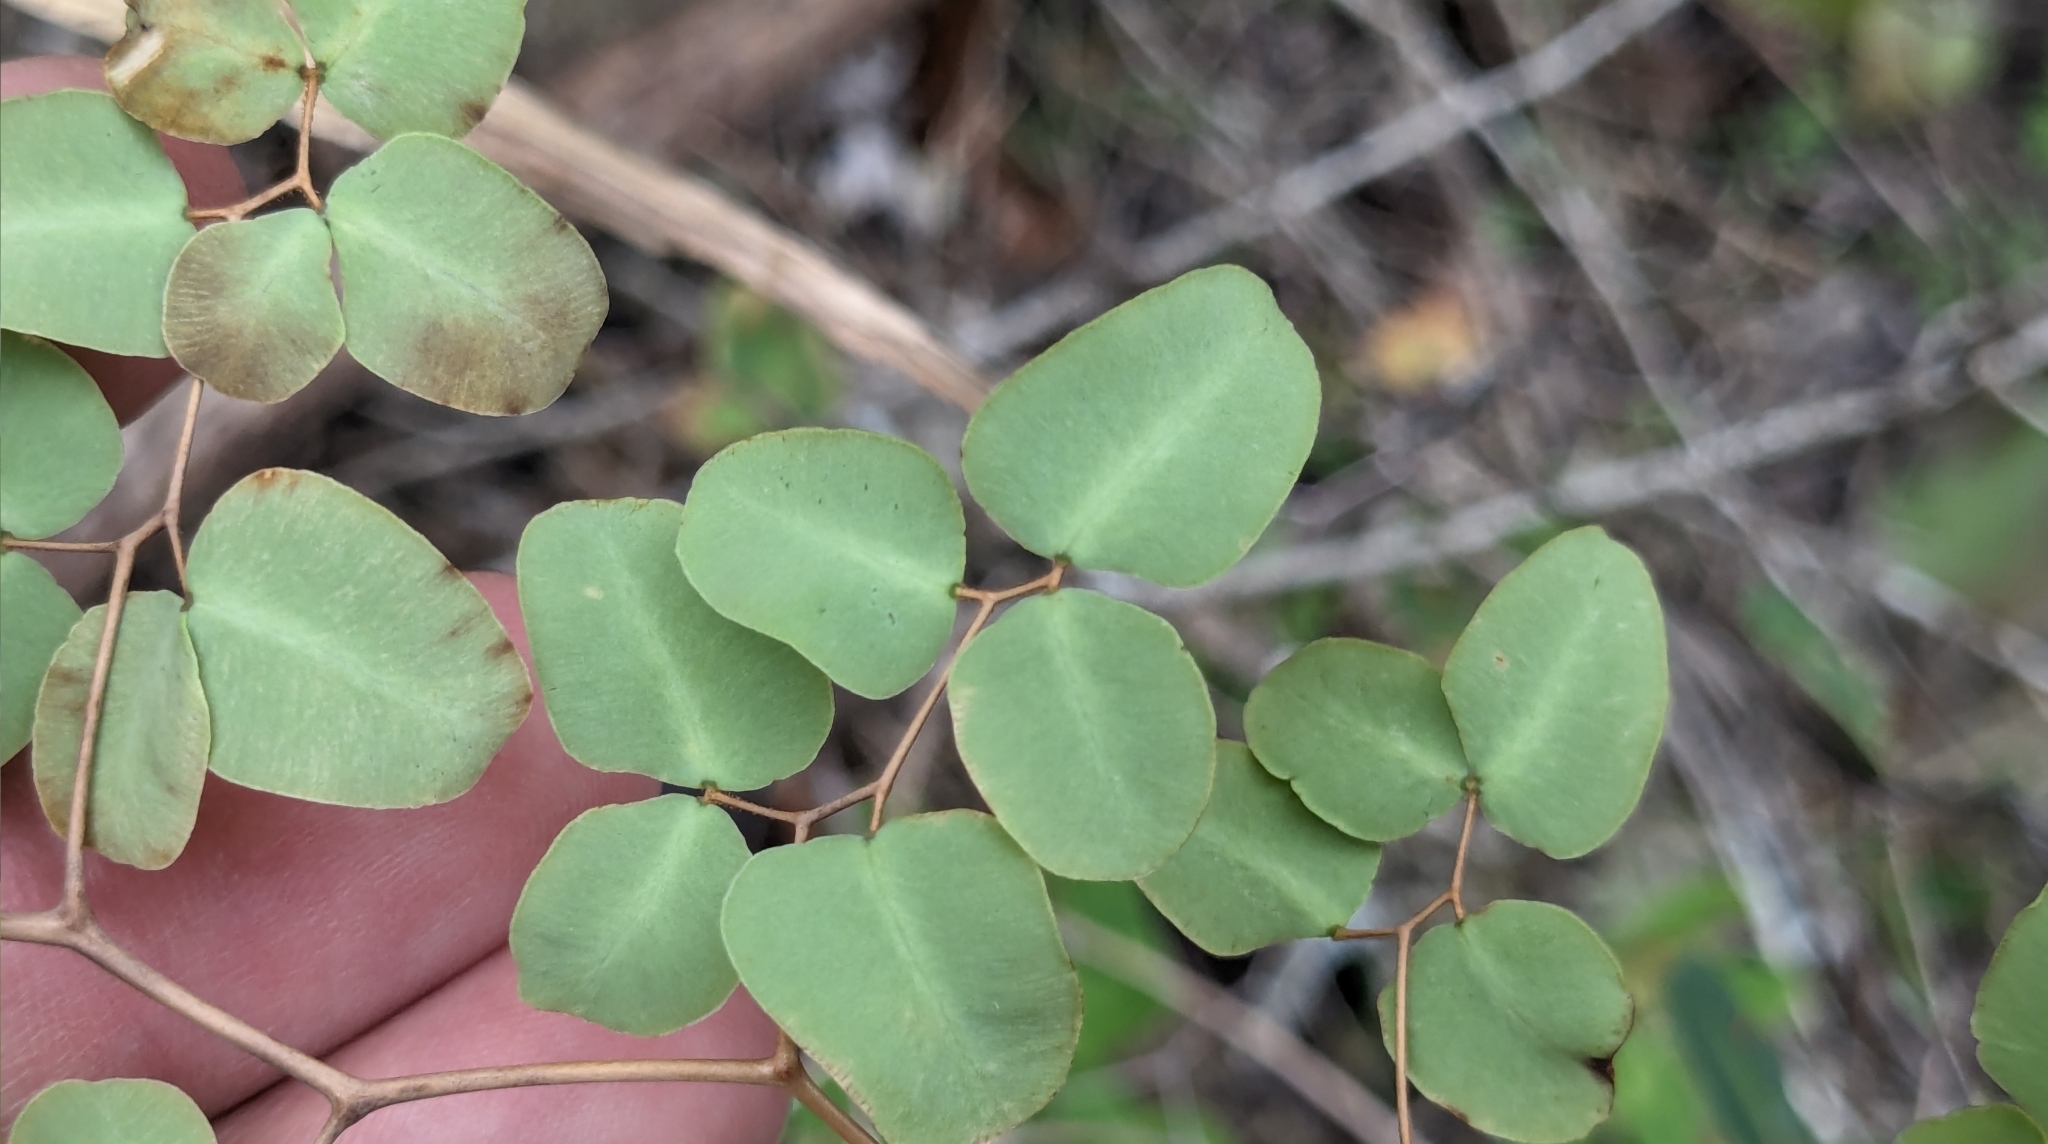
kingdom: Plantae
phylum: Tracheophyta
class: Polypodiopsida
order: Polypodiales
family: Pteridaceae
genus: Pellaea
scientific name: Pellaea ovata
